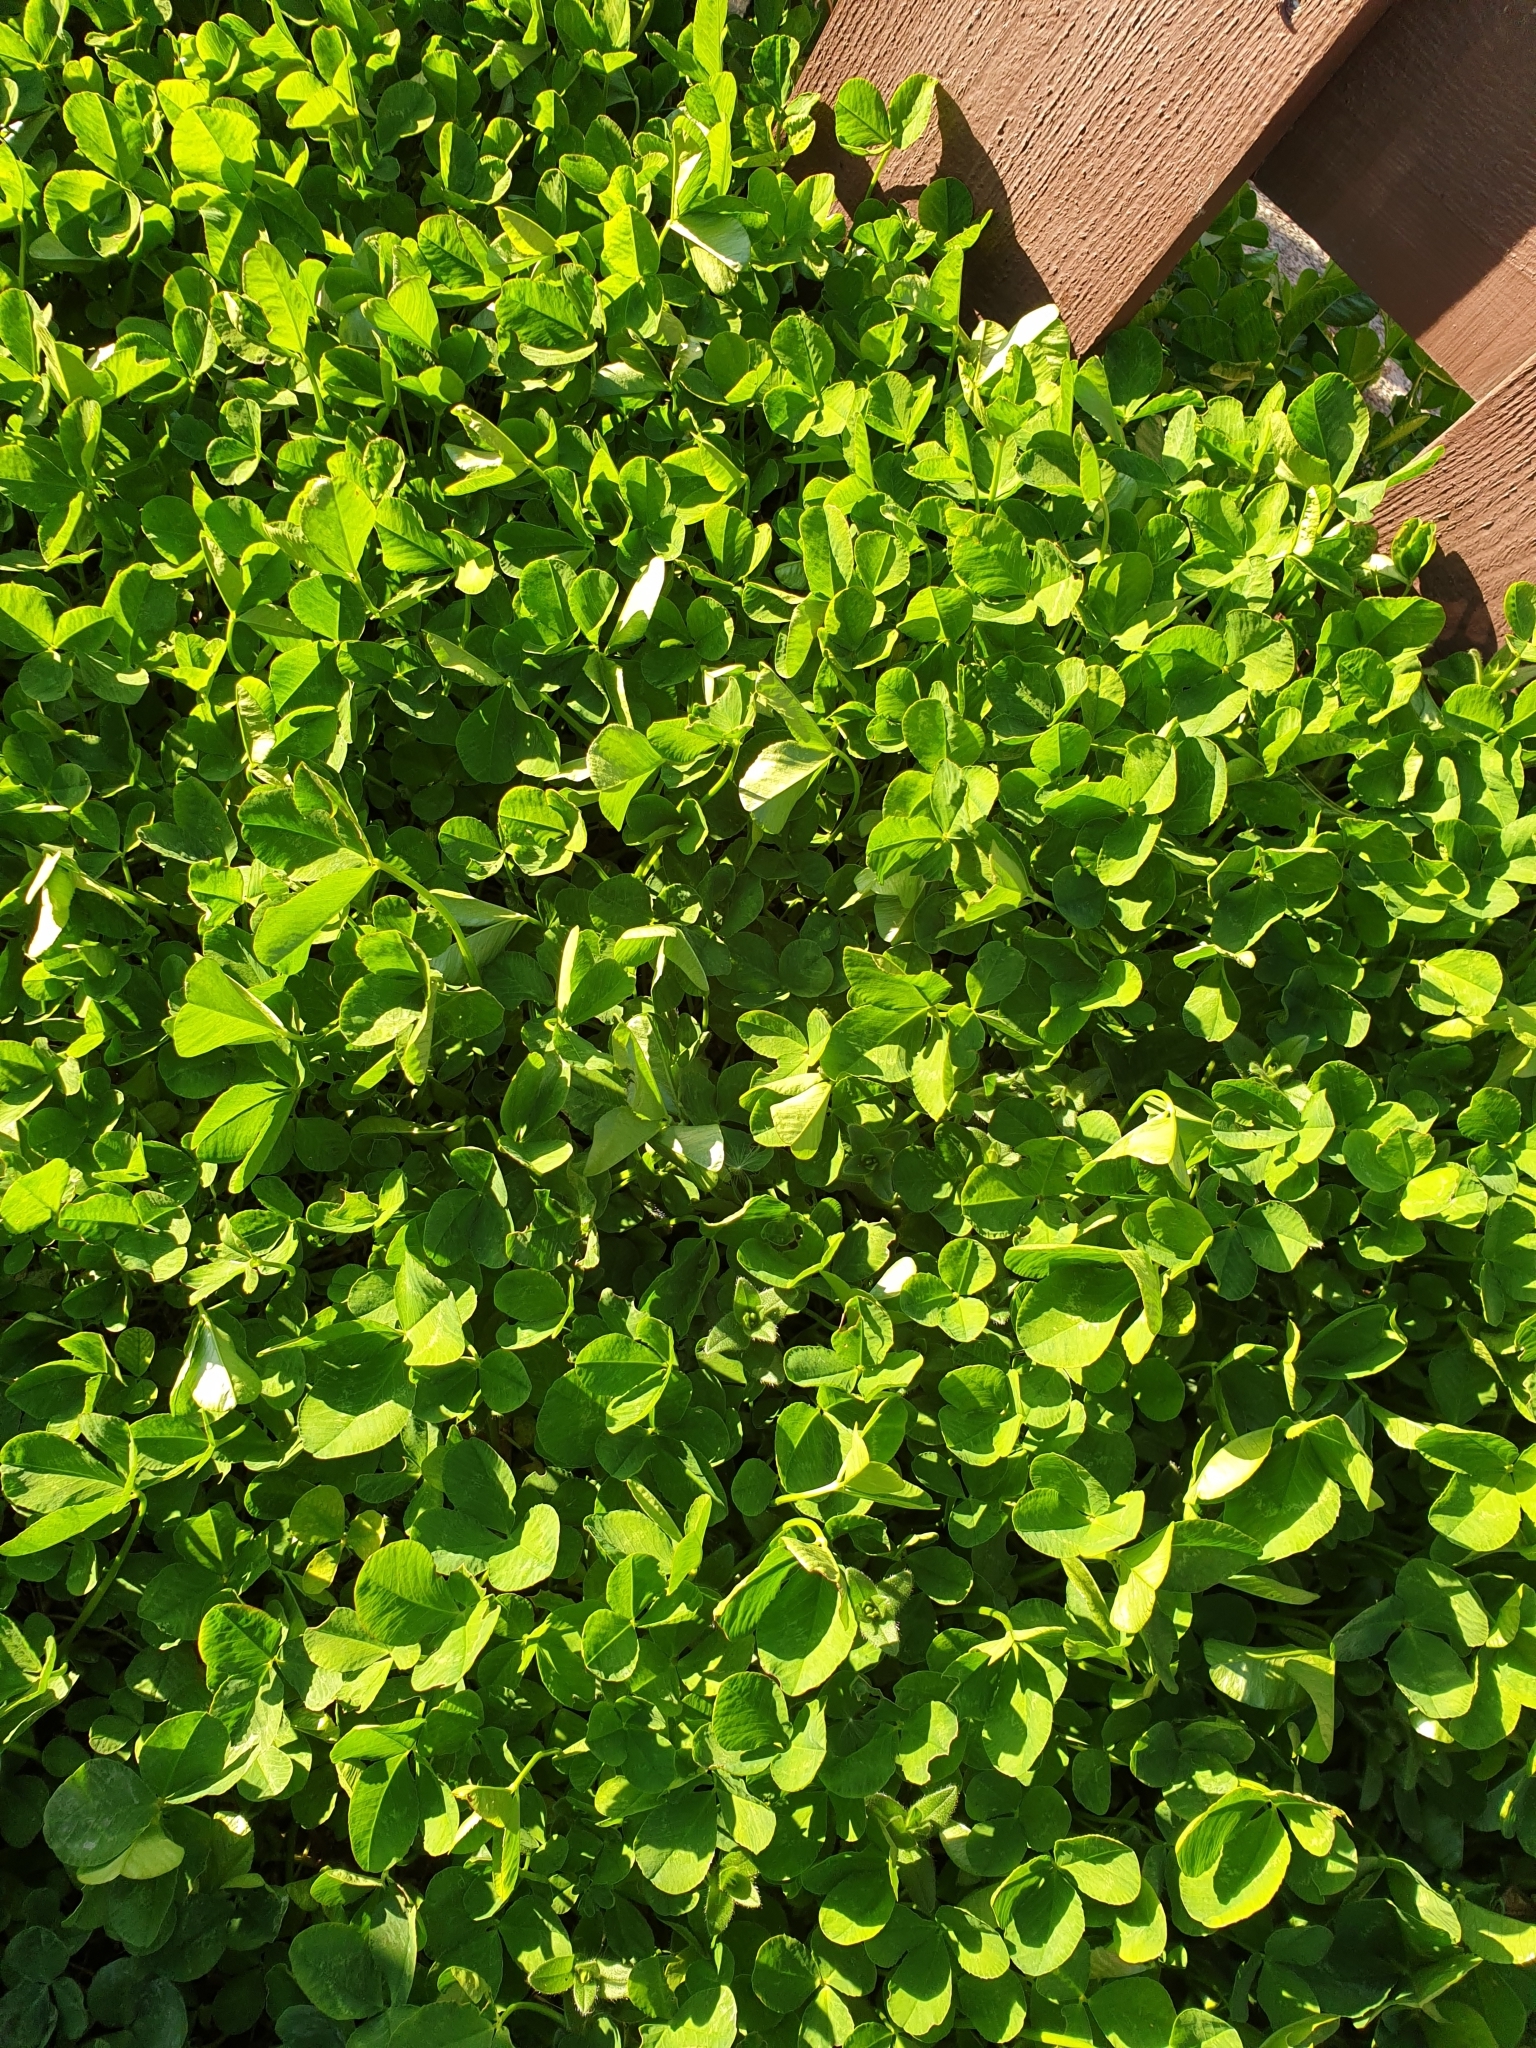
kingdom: Plantae
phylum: Tracheophyta
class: Magnoliopsida
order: Fabales
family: Fabaceae
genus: Trifolium
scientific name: Trifolium repens
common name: White clover
